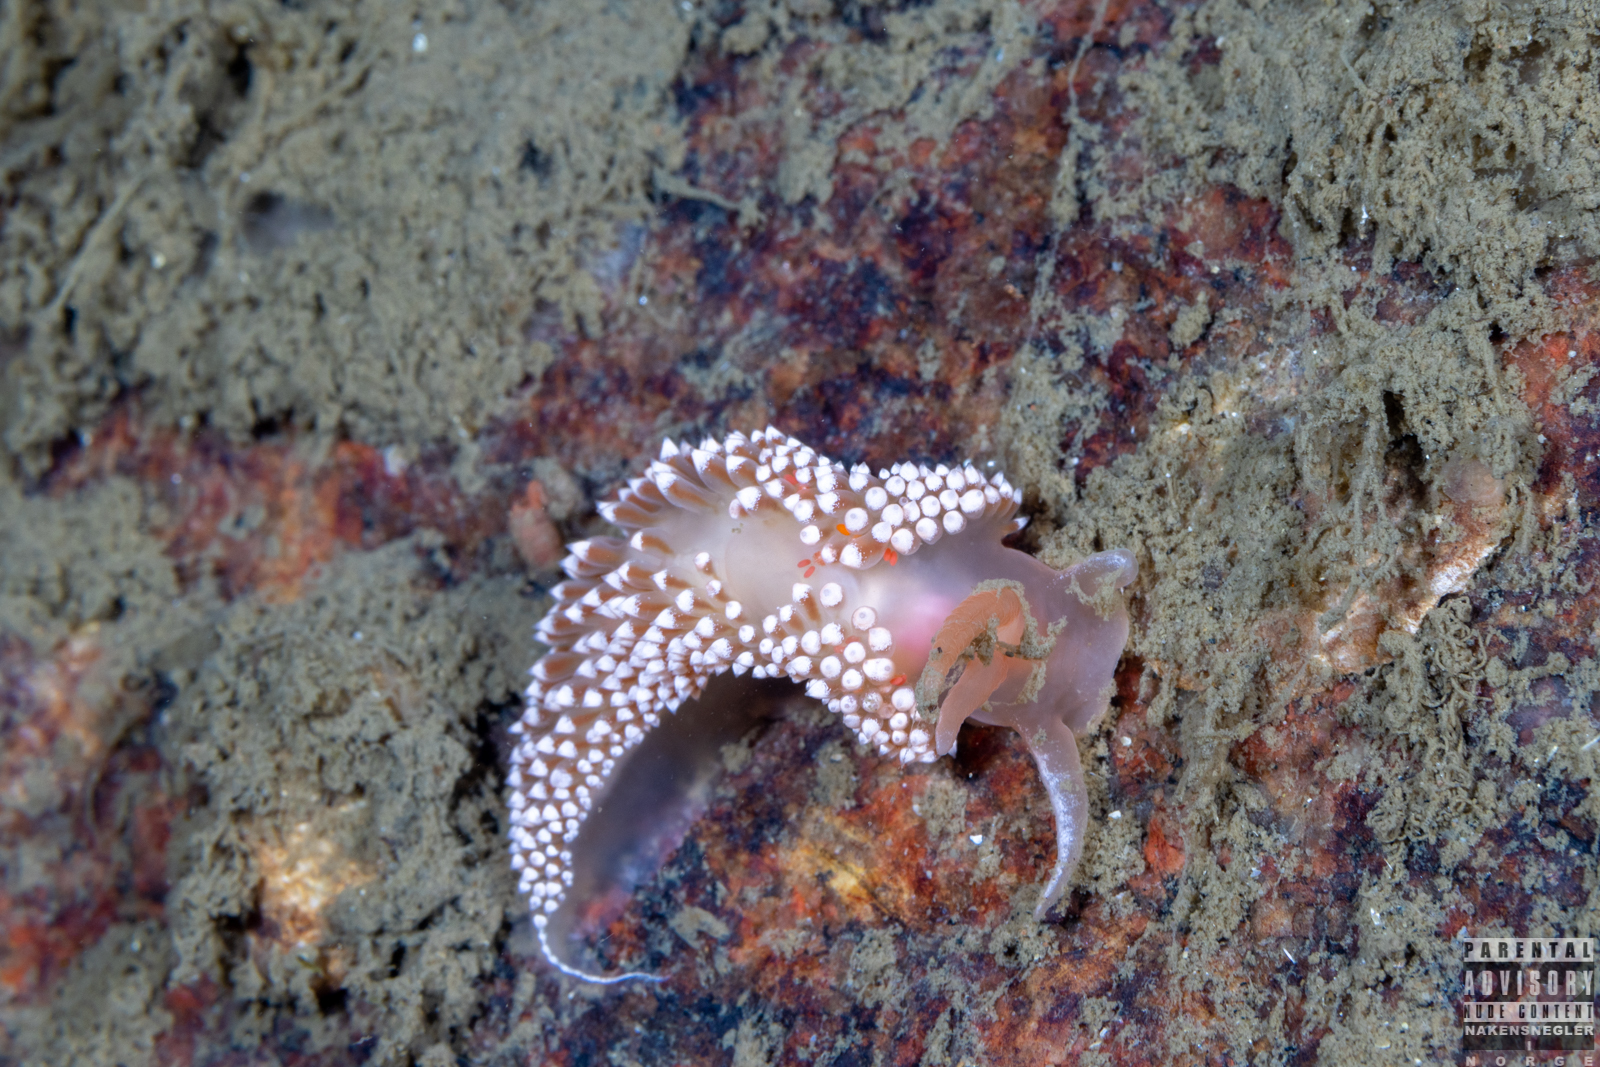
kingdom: Animalia
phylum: Mollusca
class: Gastropoda
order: Nudibranchia
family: Coryphellidae
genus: Coryphella
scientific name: Coryphella verrucosa
